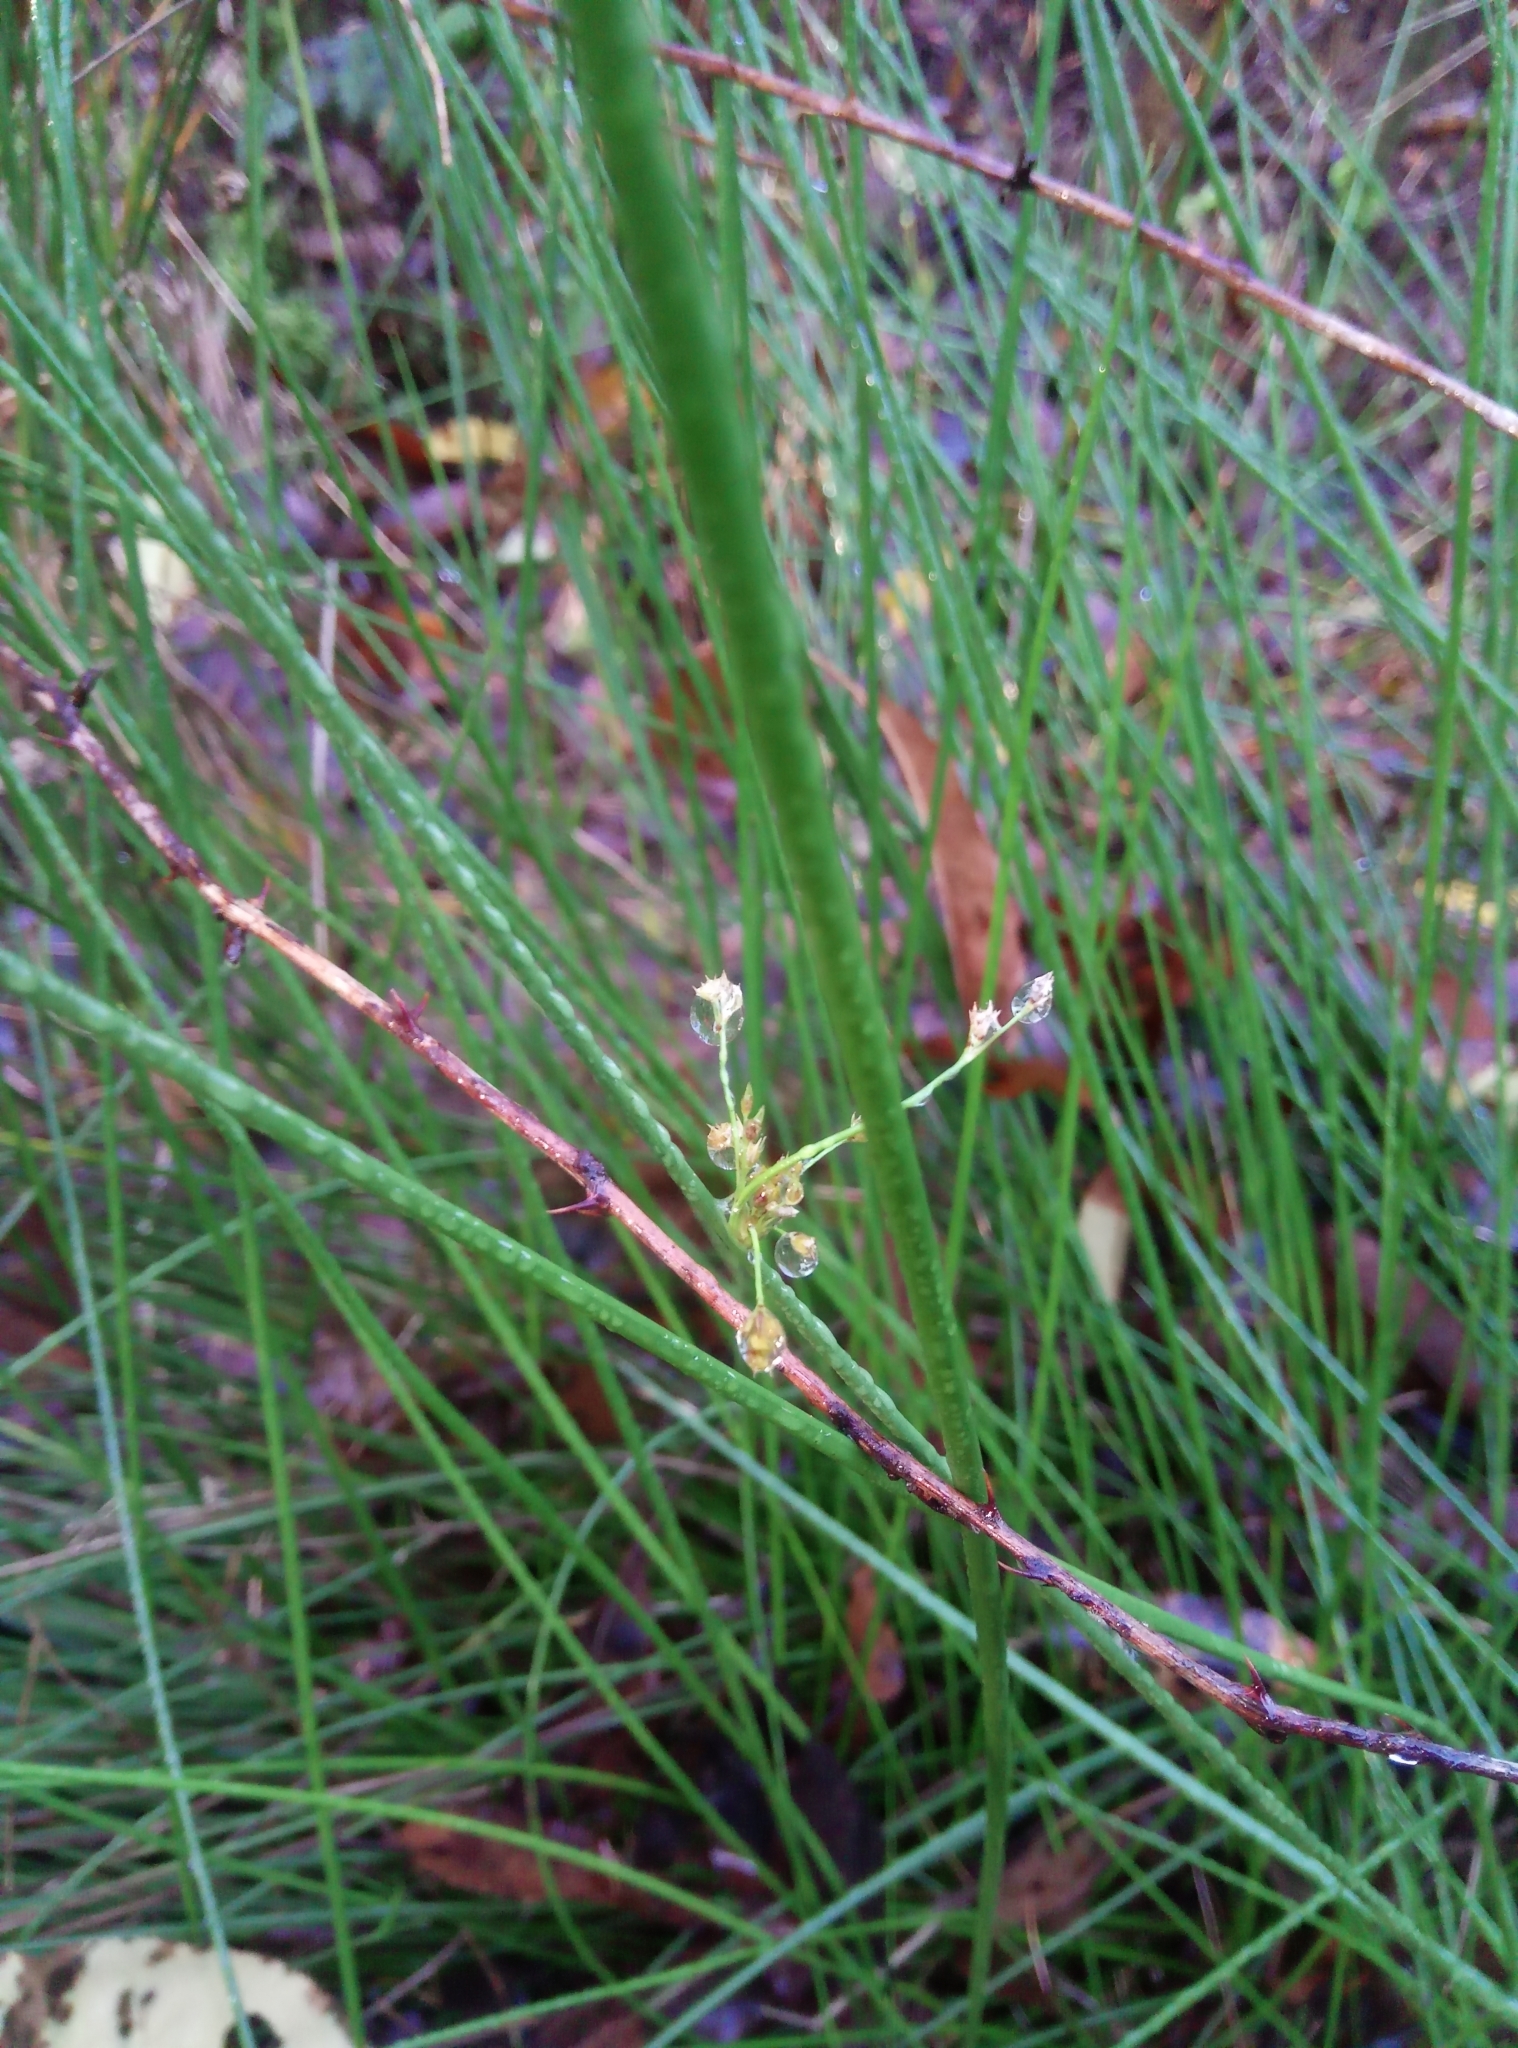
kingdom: Plantae
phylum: Tracheophyta
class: Liliopsida
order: Poales
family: Juncaceae
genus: Juncus
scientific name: Juncus effusus
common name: Soft rush
